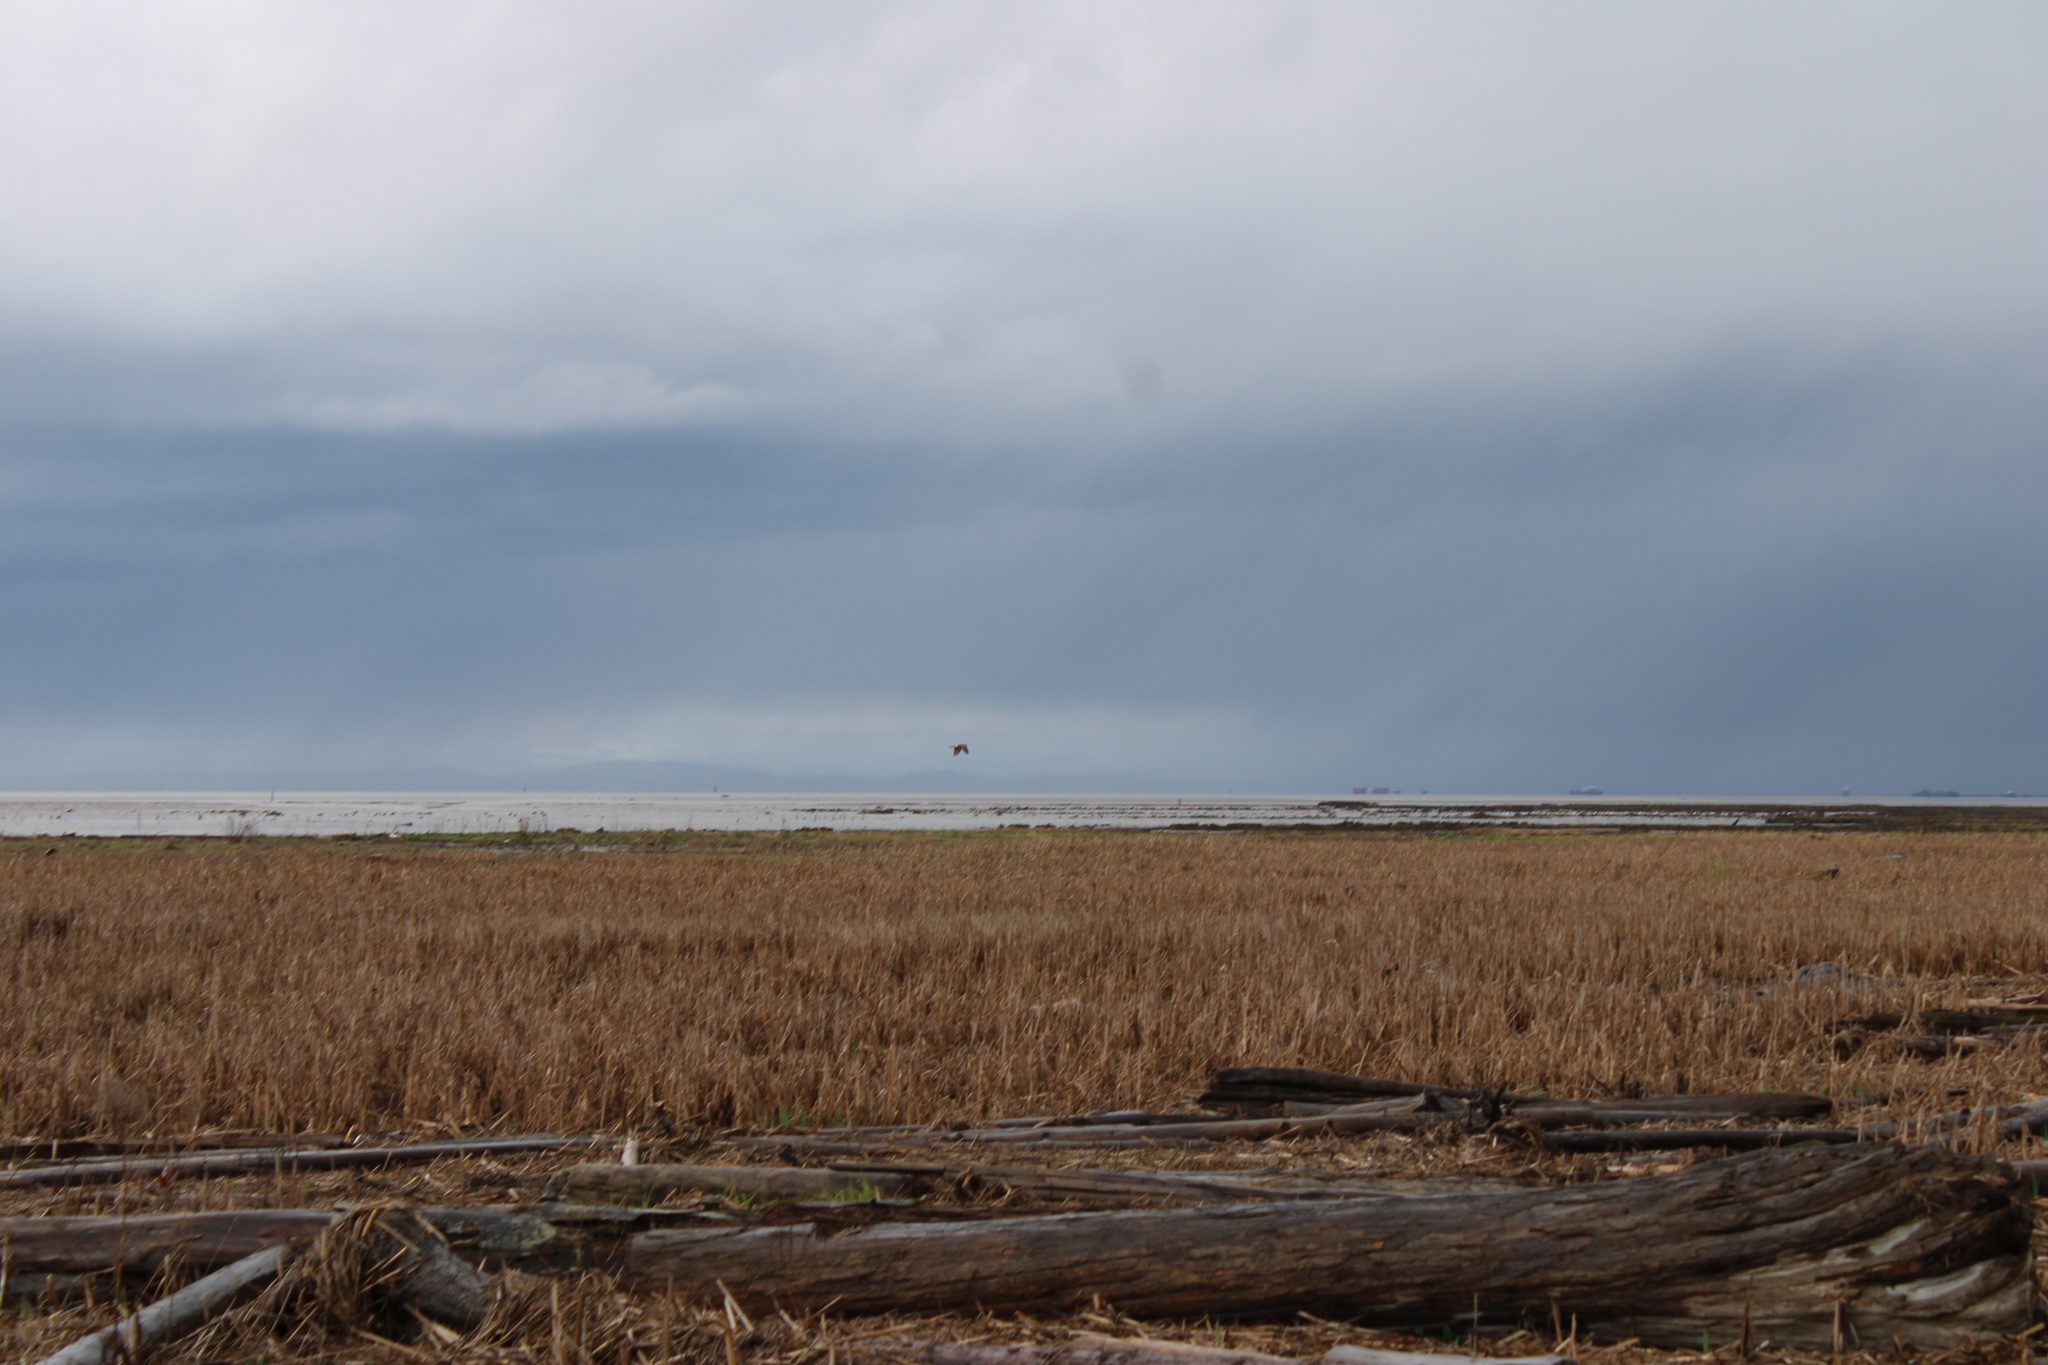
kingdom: Animalia
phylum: Chordata
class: Aves
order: Accipitriformes
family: Accipitridae
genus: Circus
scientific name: Circus cyaneus
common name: Hen harrier
